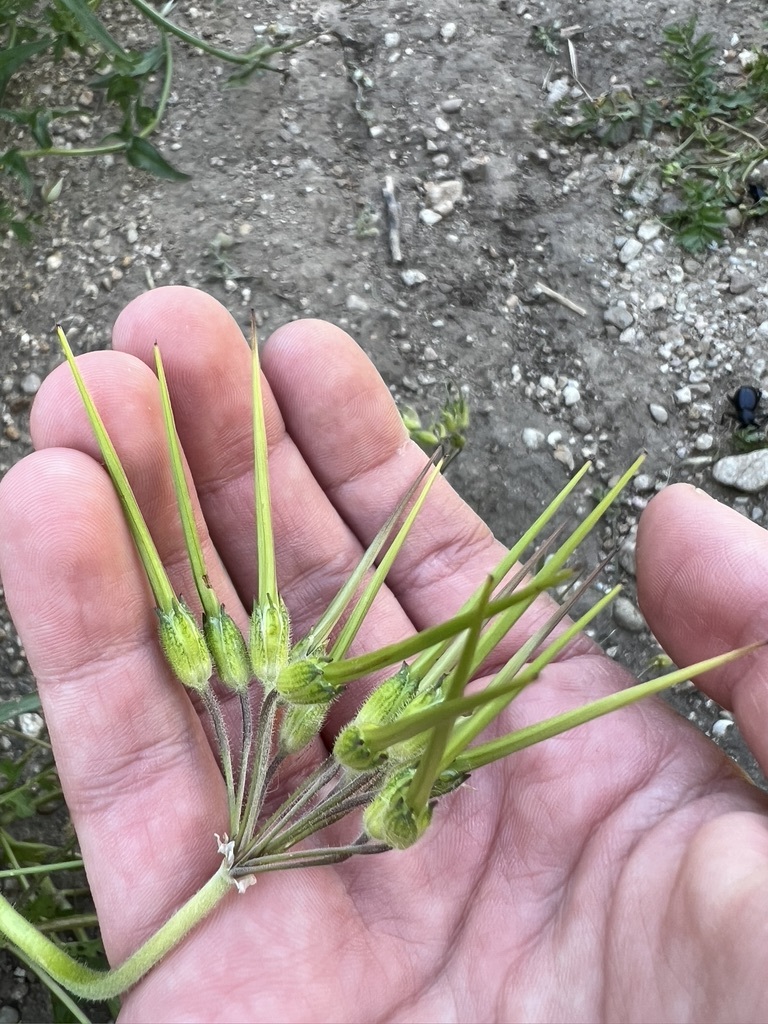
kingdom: Plantae
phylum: Tracheophyta
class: Magnoliopsida
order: Geraniales
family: Geraniaceae
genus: Erodium
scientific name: Erodium moschatum
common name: Musk stork's-bill
